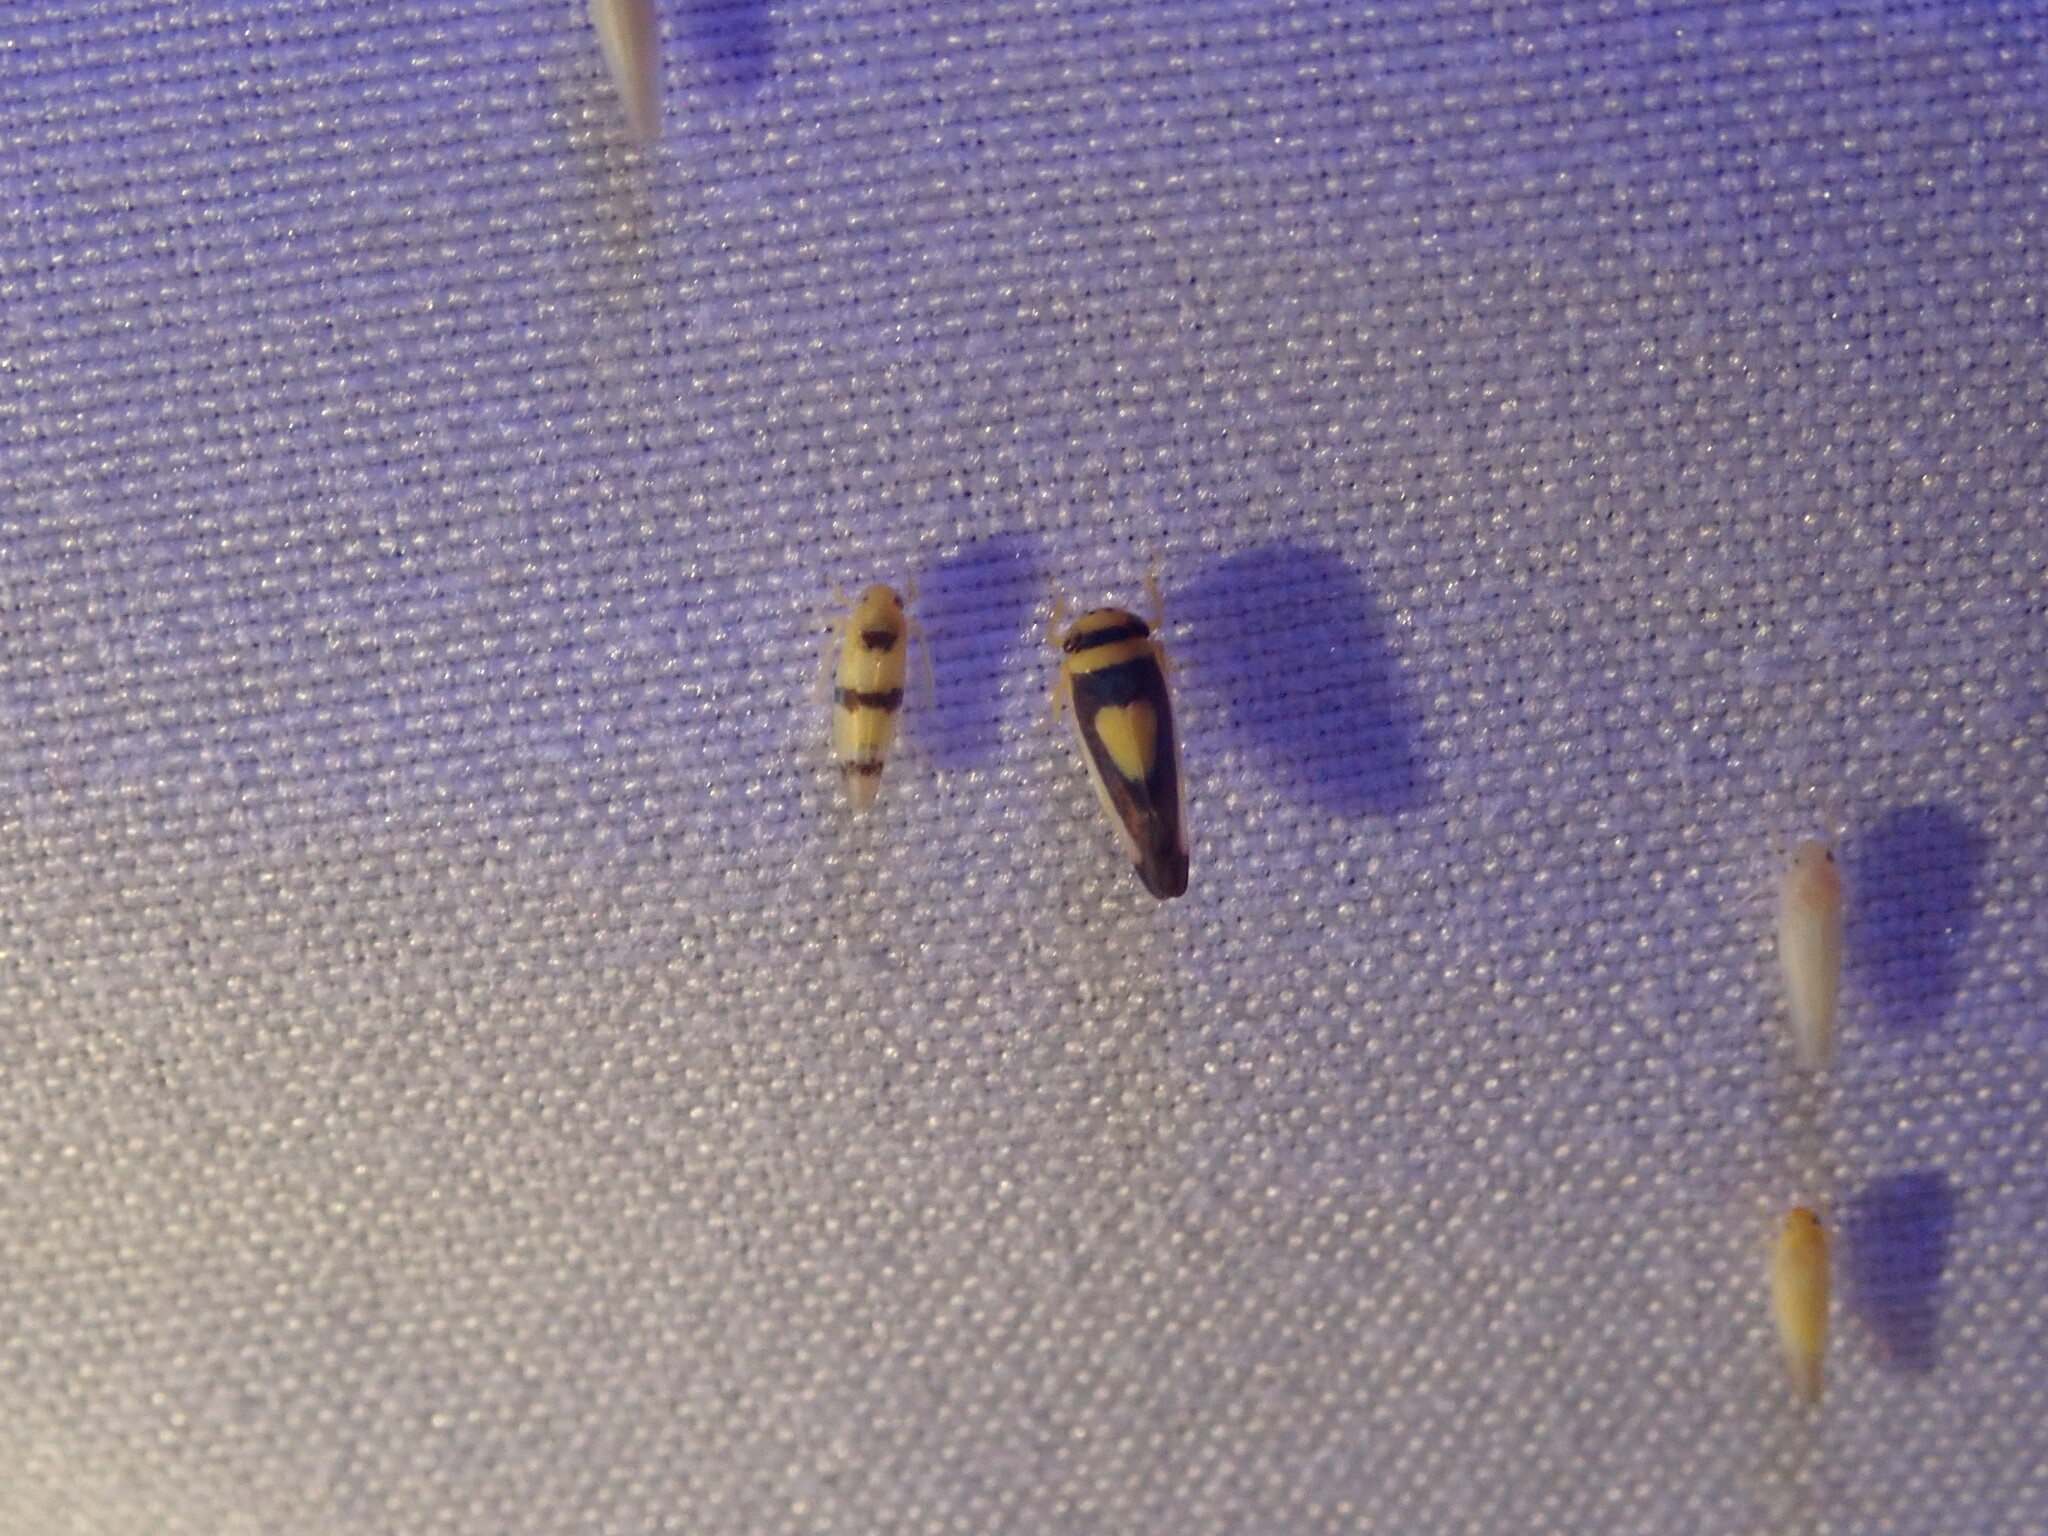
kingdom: Animalia
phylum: Arthropoda
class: Insecta
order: Hemiptera
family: Cicadellidae
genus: Colladonus
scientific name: Colladonus clitellarius
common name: The saddleback leafhopper
